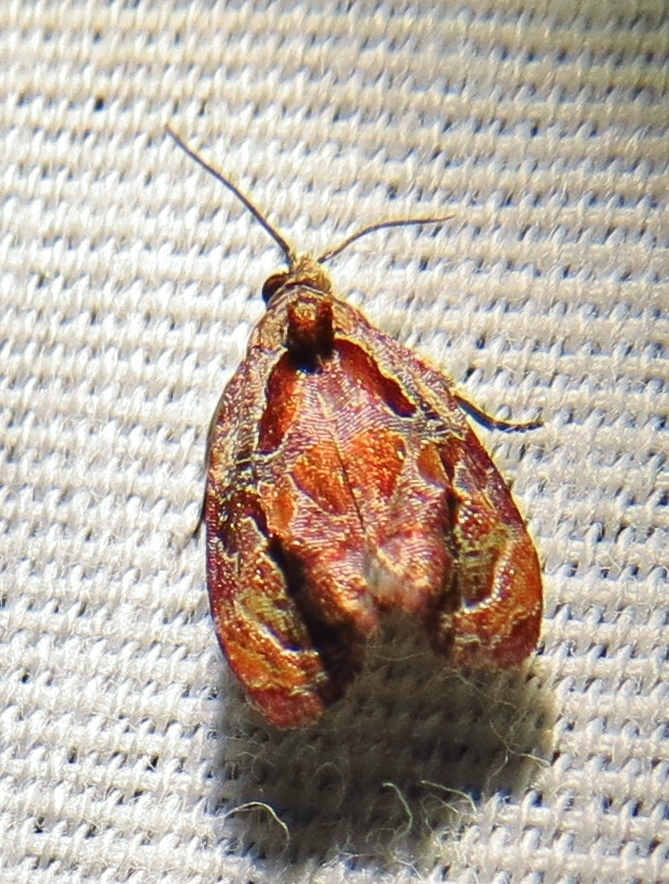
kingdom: Animalia
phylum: Arthropoda
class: Insecta
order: Lepidoptera
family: Tortricidae
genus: Zomaria
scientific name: Zomaria interruptolineana
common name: Broken-lined zomaria moth
